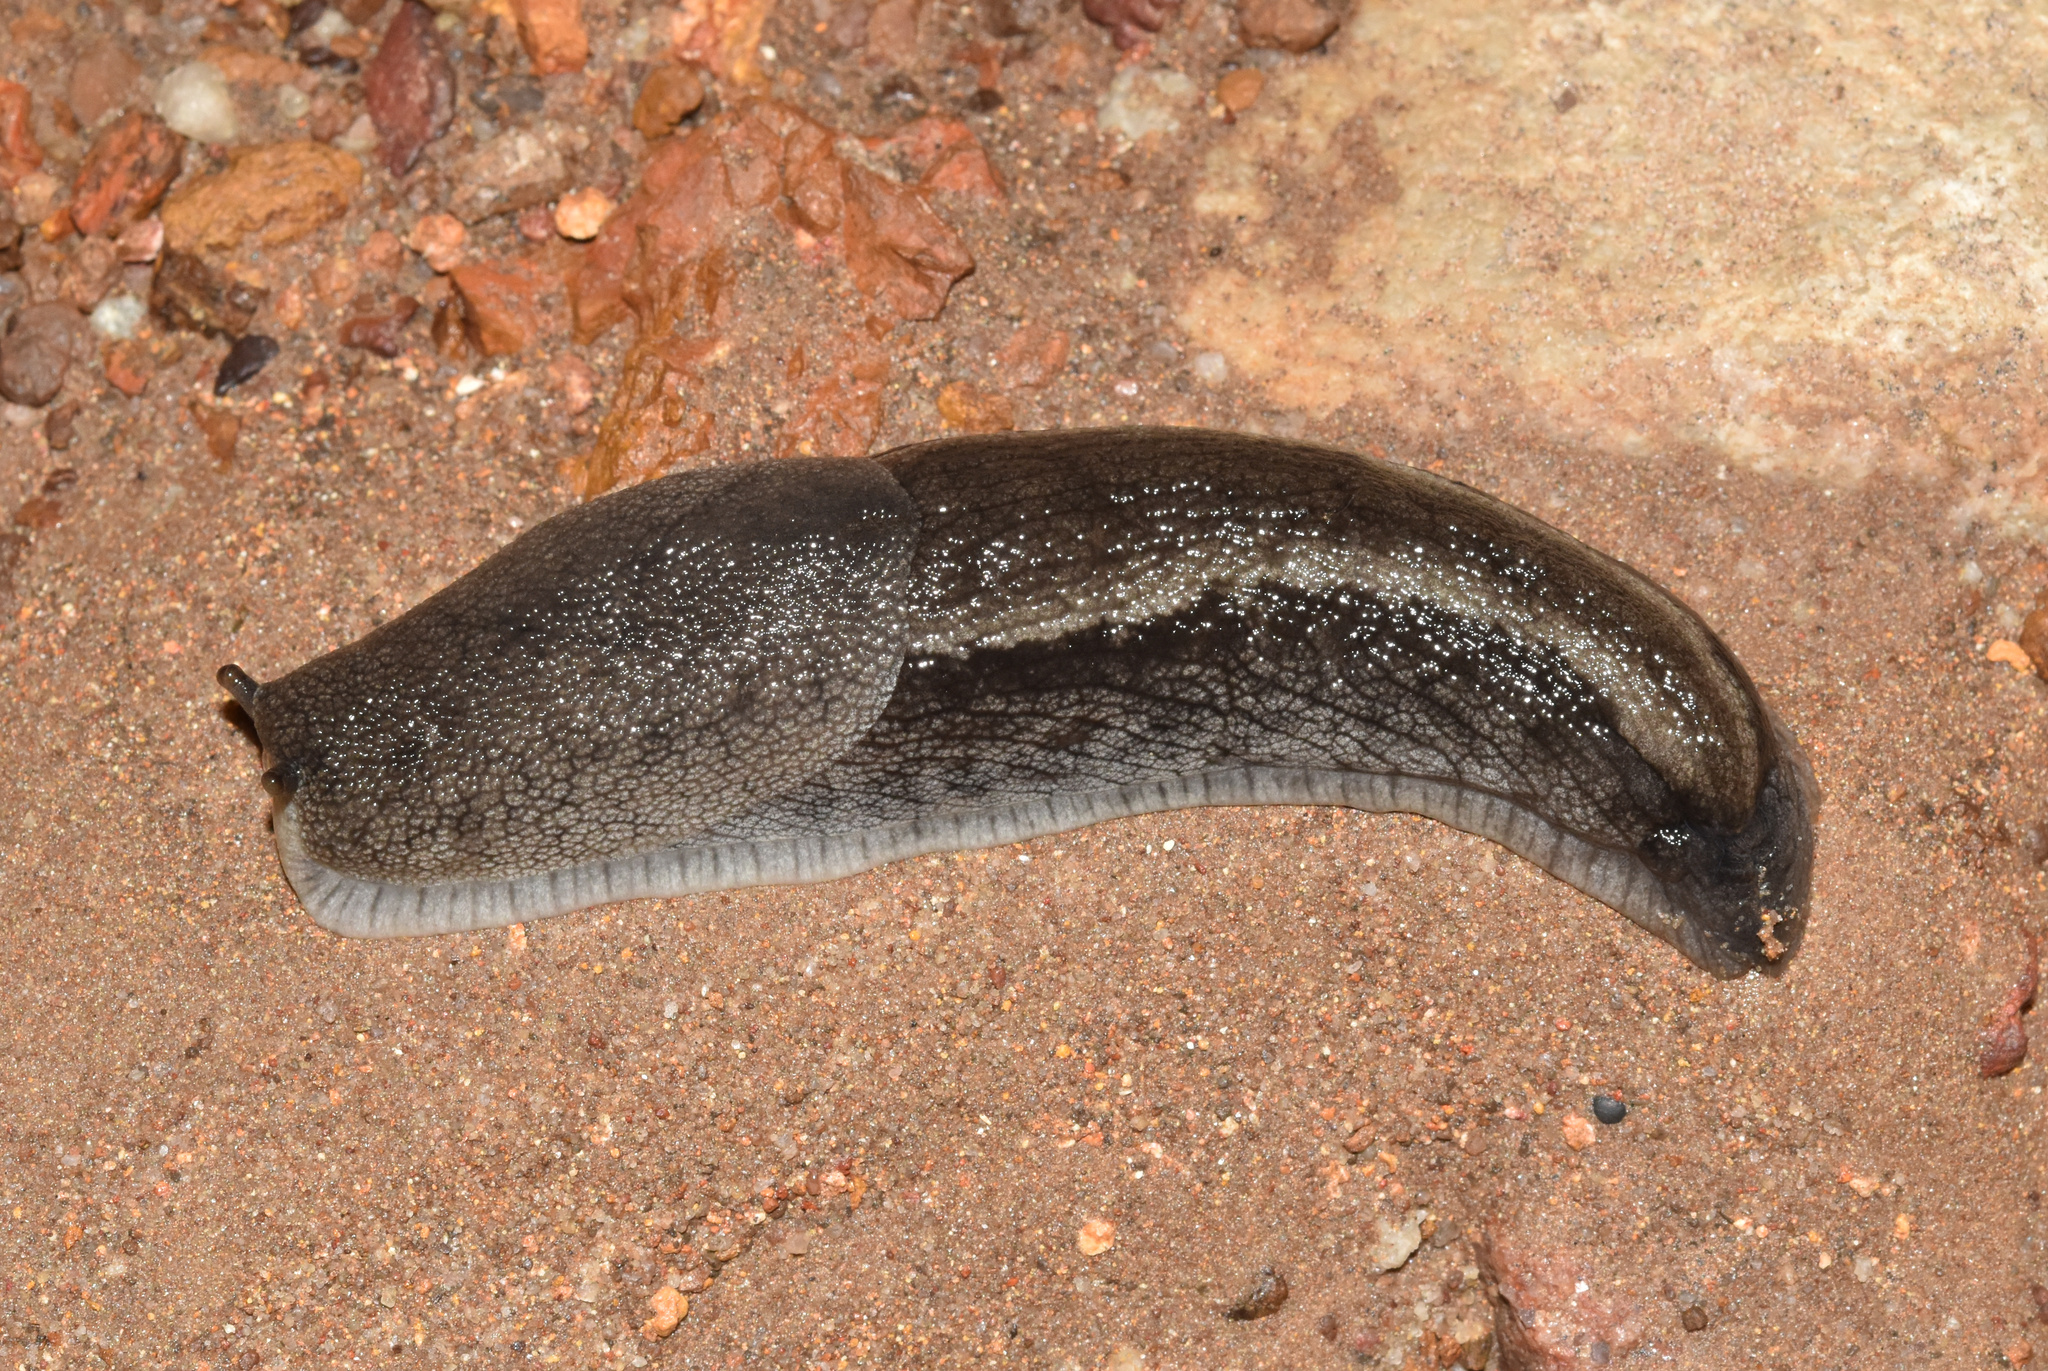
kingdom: Animalia
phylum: Mollusca
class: Gastropoda
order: Stylommatophora
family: Urocyclidae
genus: Urocyclus
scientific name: Urocyclus kirkii
